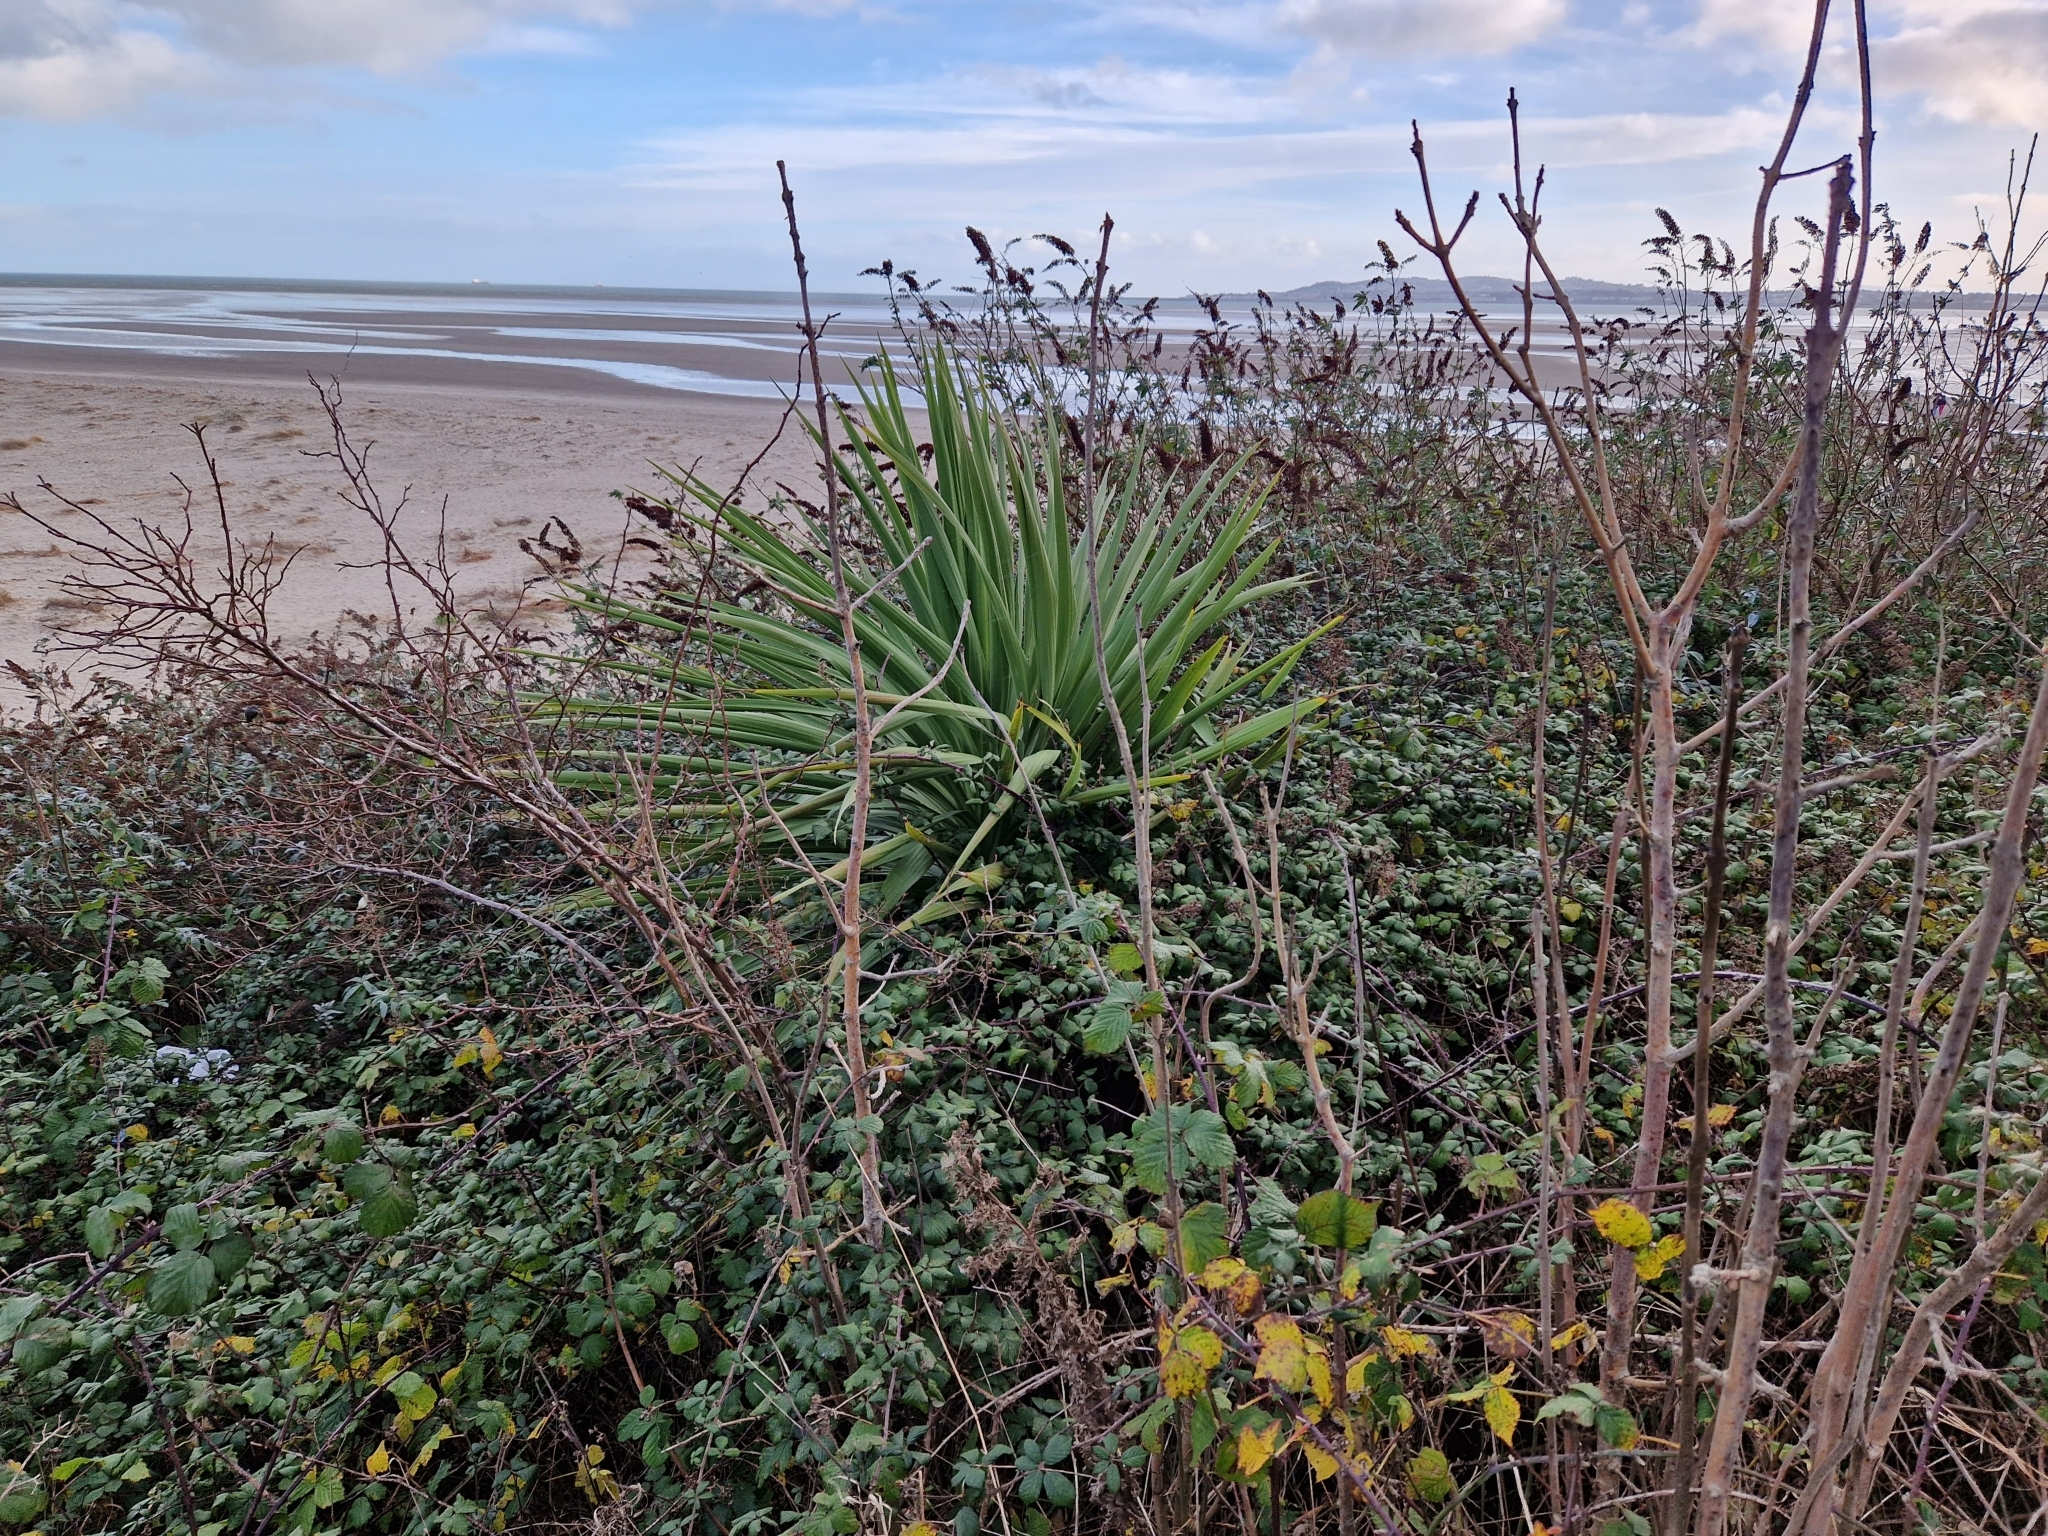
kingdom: Plantae
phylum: Tracheophyta
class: Liliopsida
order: Asparagales
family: Asparagaceae
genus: Cordyline
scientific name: Cordyline australis
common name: Cabbage-palm
